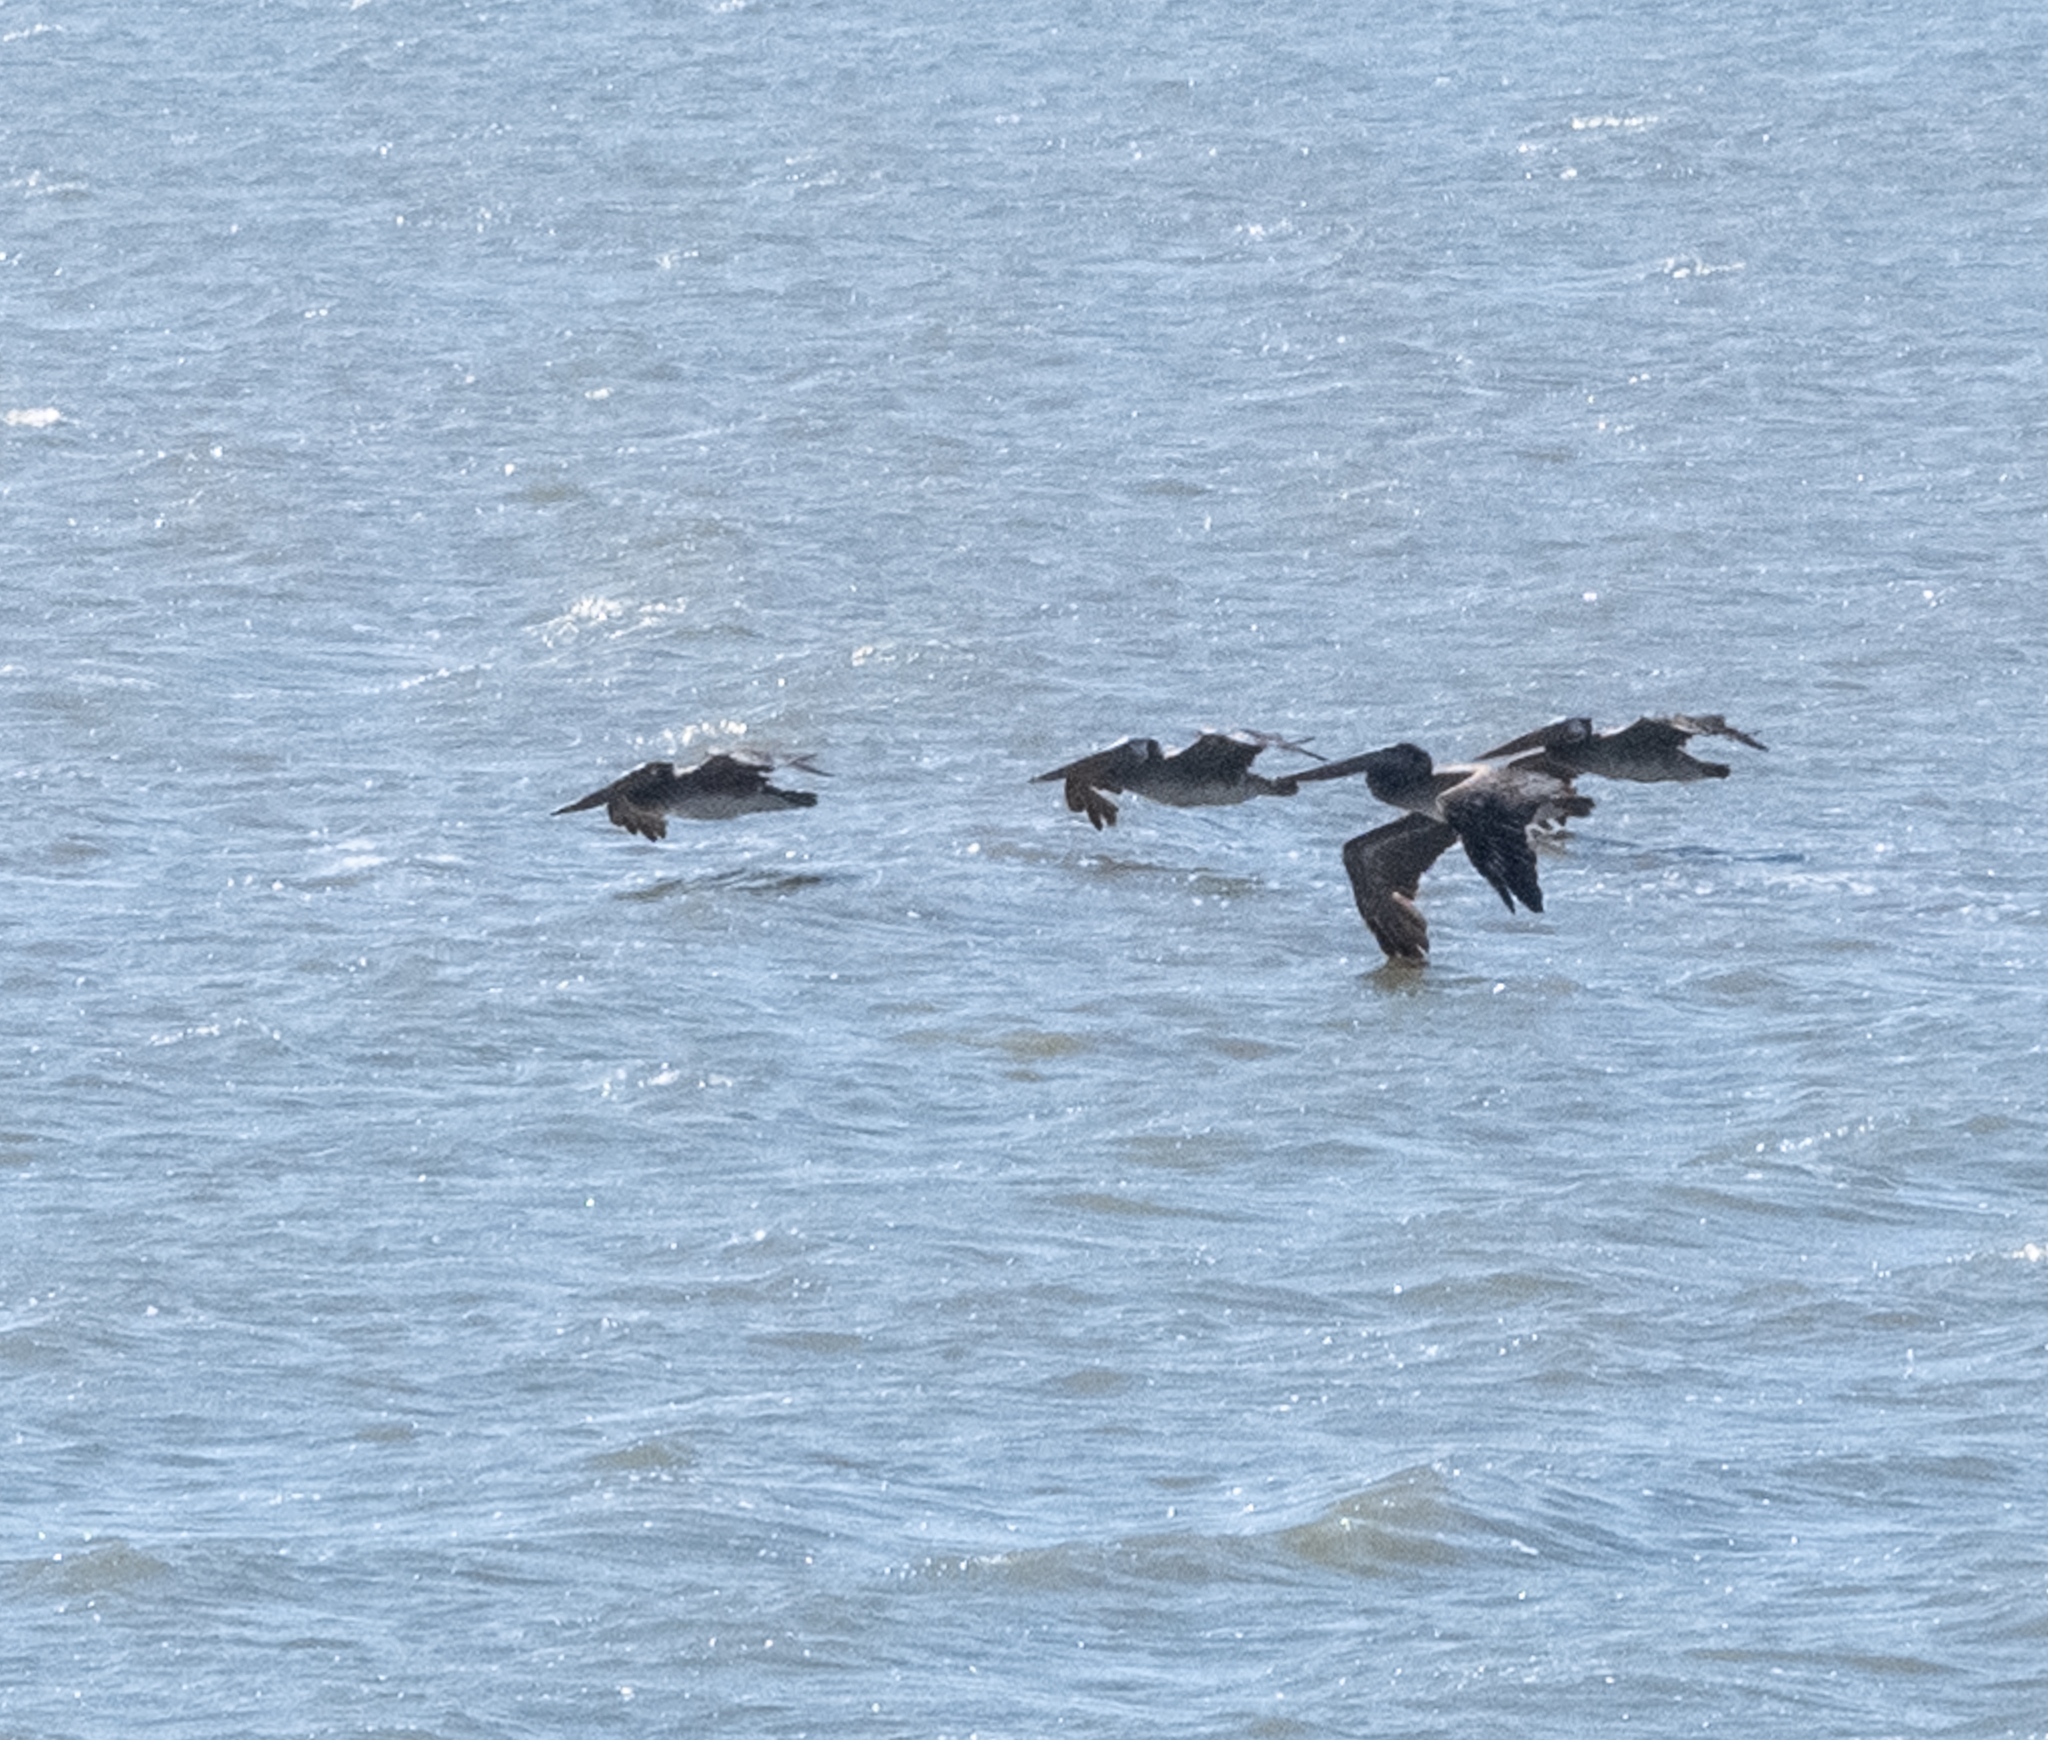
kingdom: Animalia
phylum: Chordata
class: Aves
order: Pelecaniformes
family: Pelecanidae
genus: Pelecanus
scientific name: Pelecanus occidentalis
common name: Brown pelican
